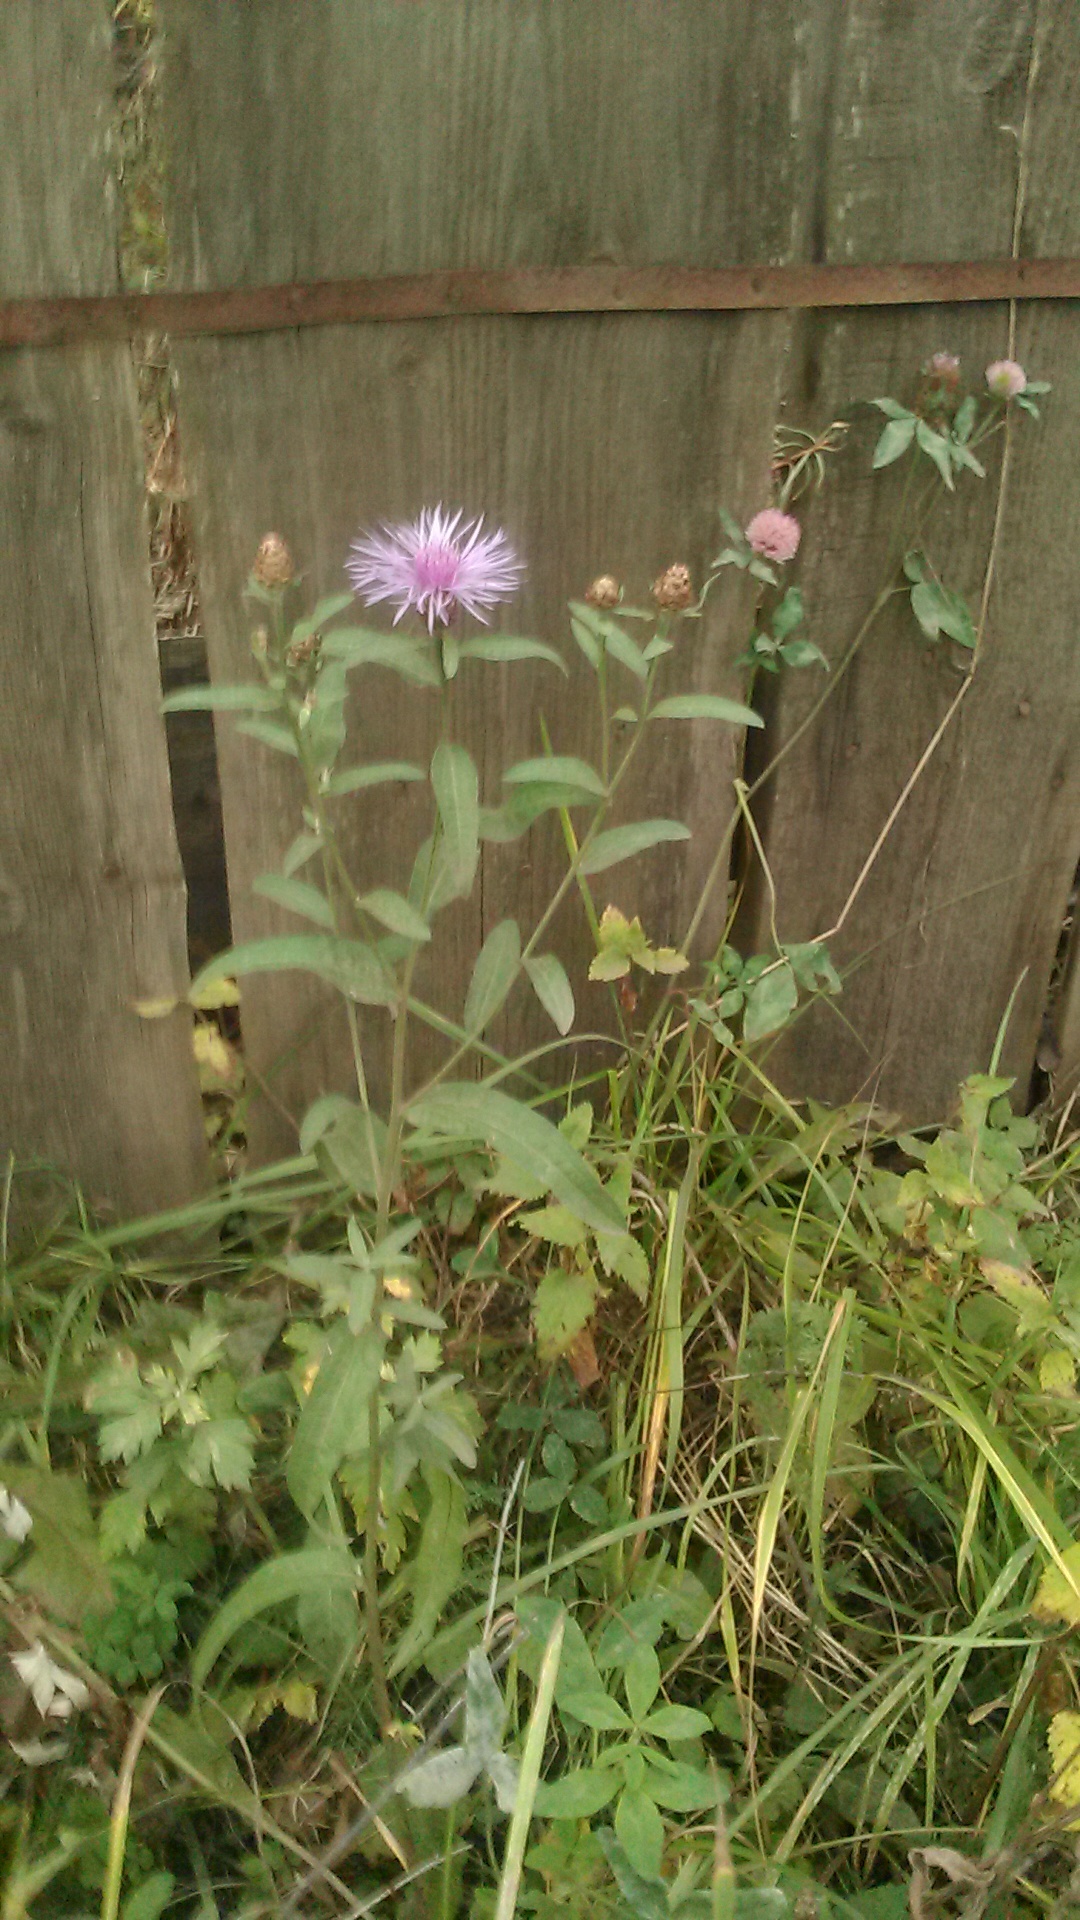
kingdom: Plantae
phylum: Tracheophyta
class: Magnoliopsida
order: Asterales
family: Asteraceae
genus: Centaurea
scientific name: Centaurea jacea
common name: Brown knapweed
